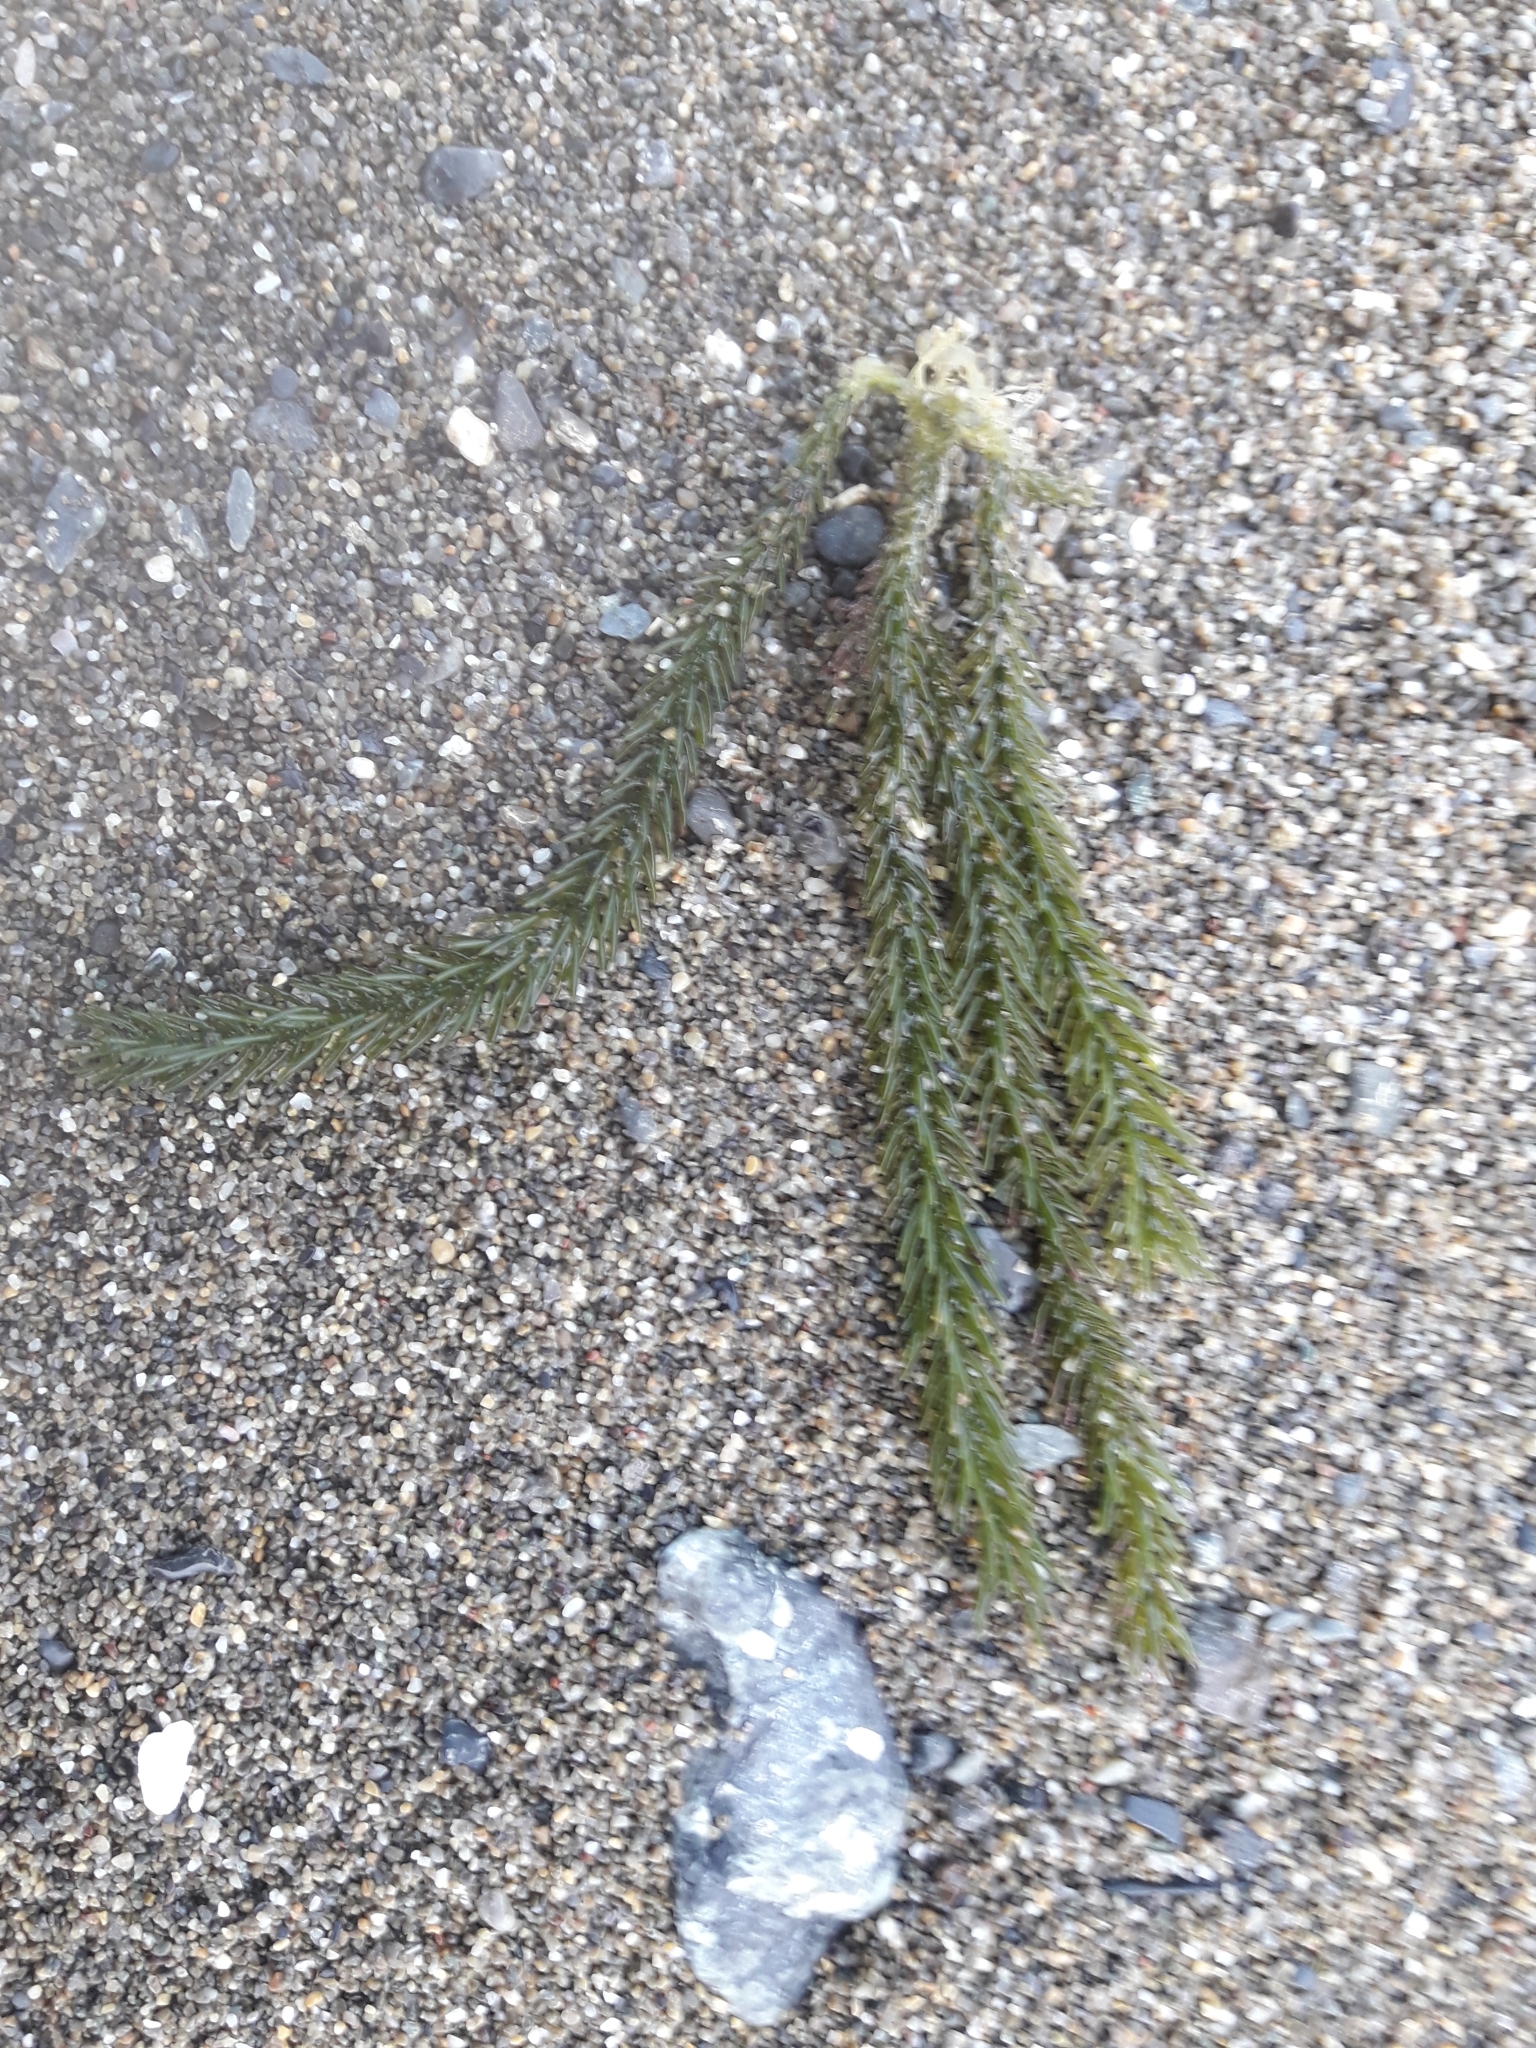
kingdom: Plantae
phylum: Chlorophyta
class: Ulvophyceae
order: Bryopsidales
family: Caulerpaceae
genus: Caulerpa
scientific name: Caulerpa brownii
